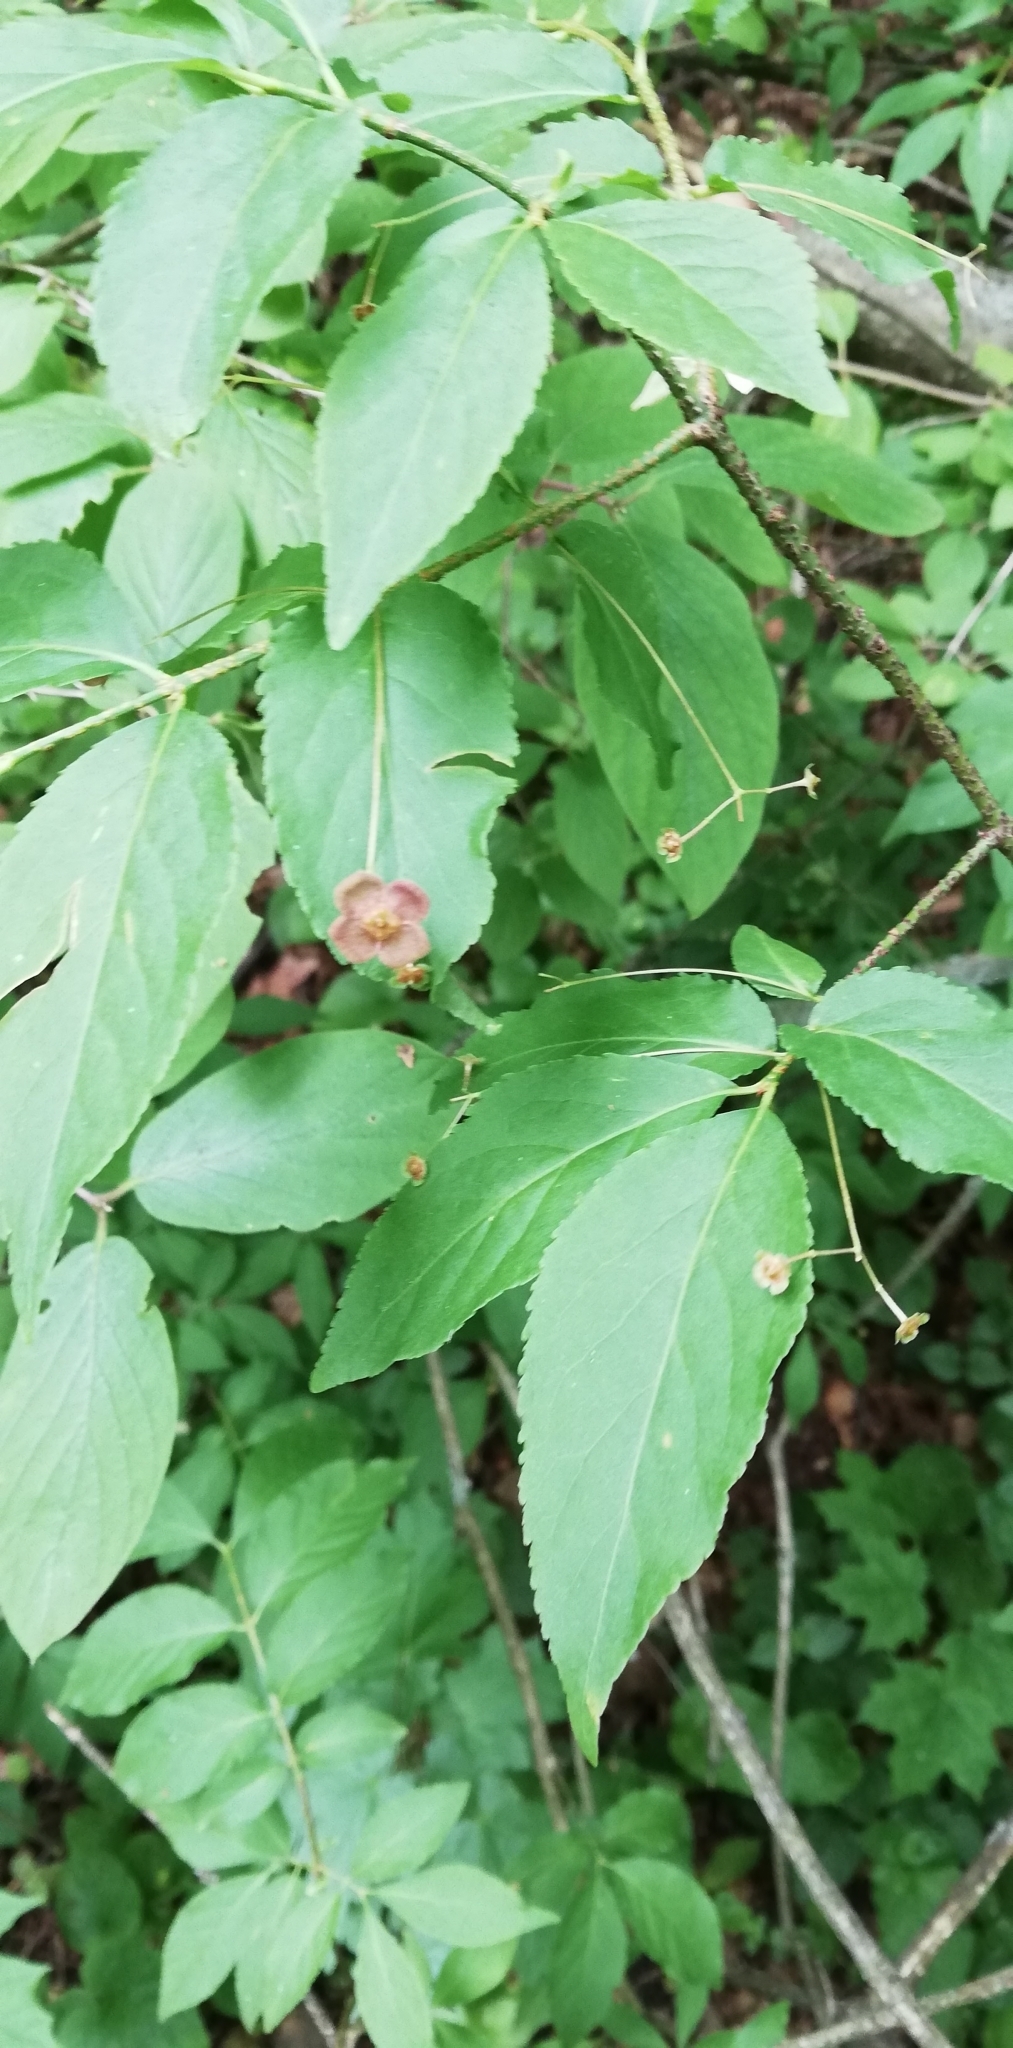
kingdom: Plantae
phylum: Tracheophyta
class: Magnoliopsida
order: Celastrales
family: Celastraceae
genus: Euonymus
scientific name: Euonymus verrucosus
